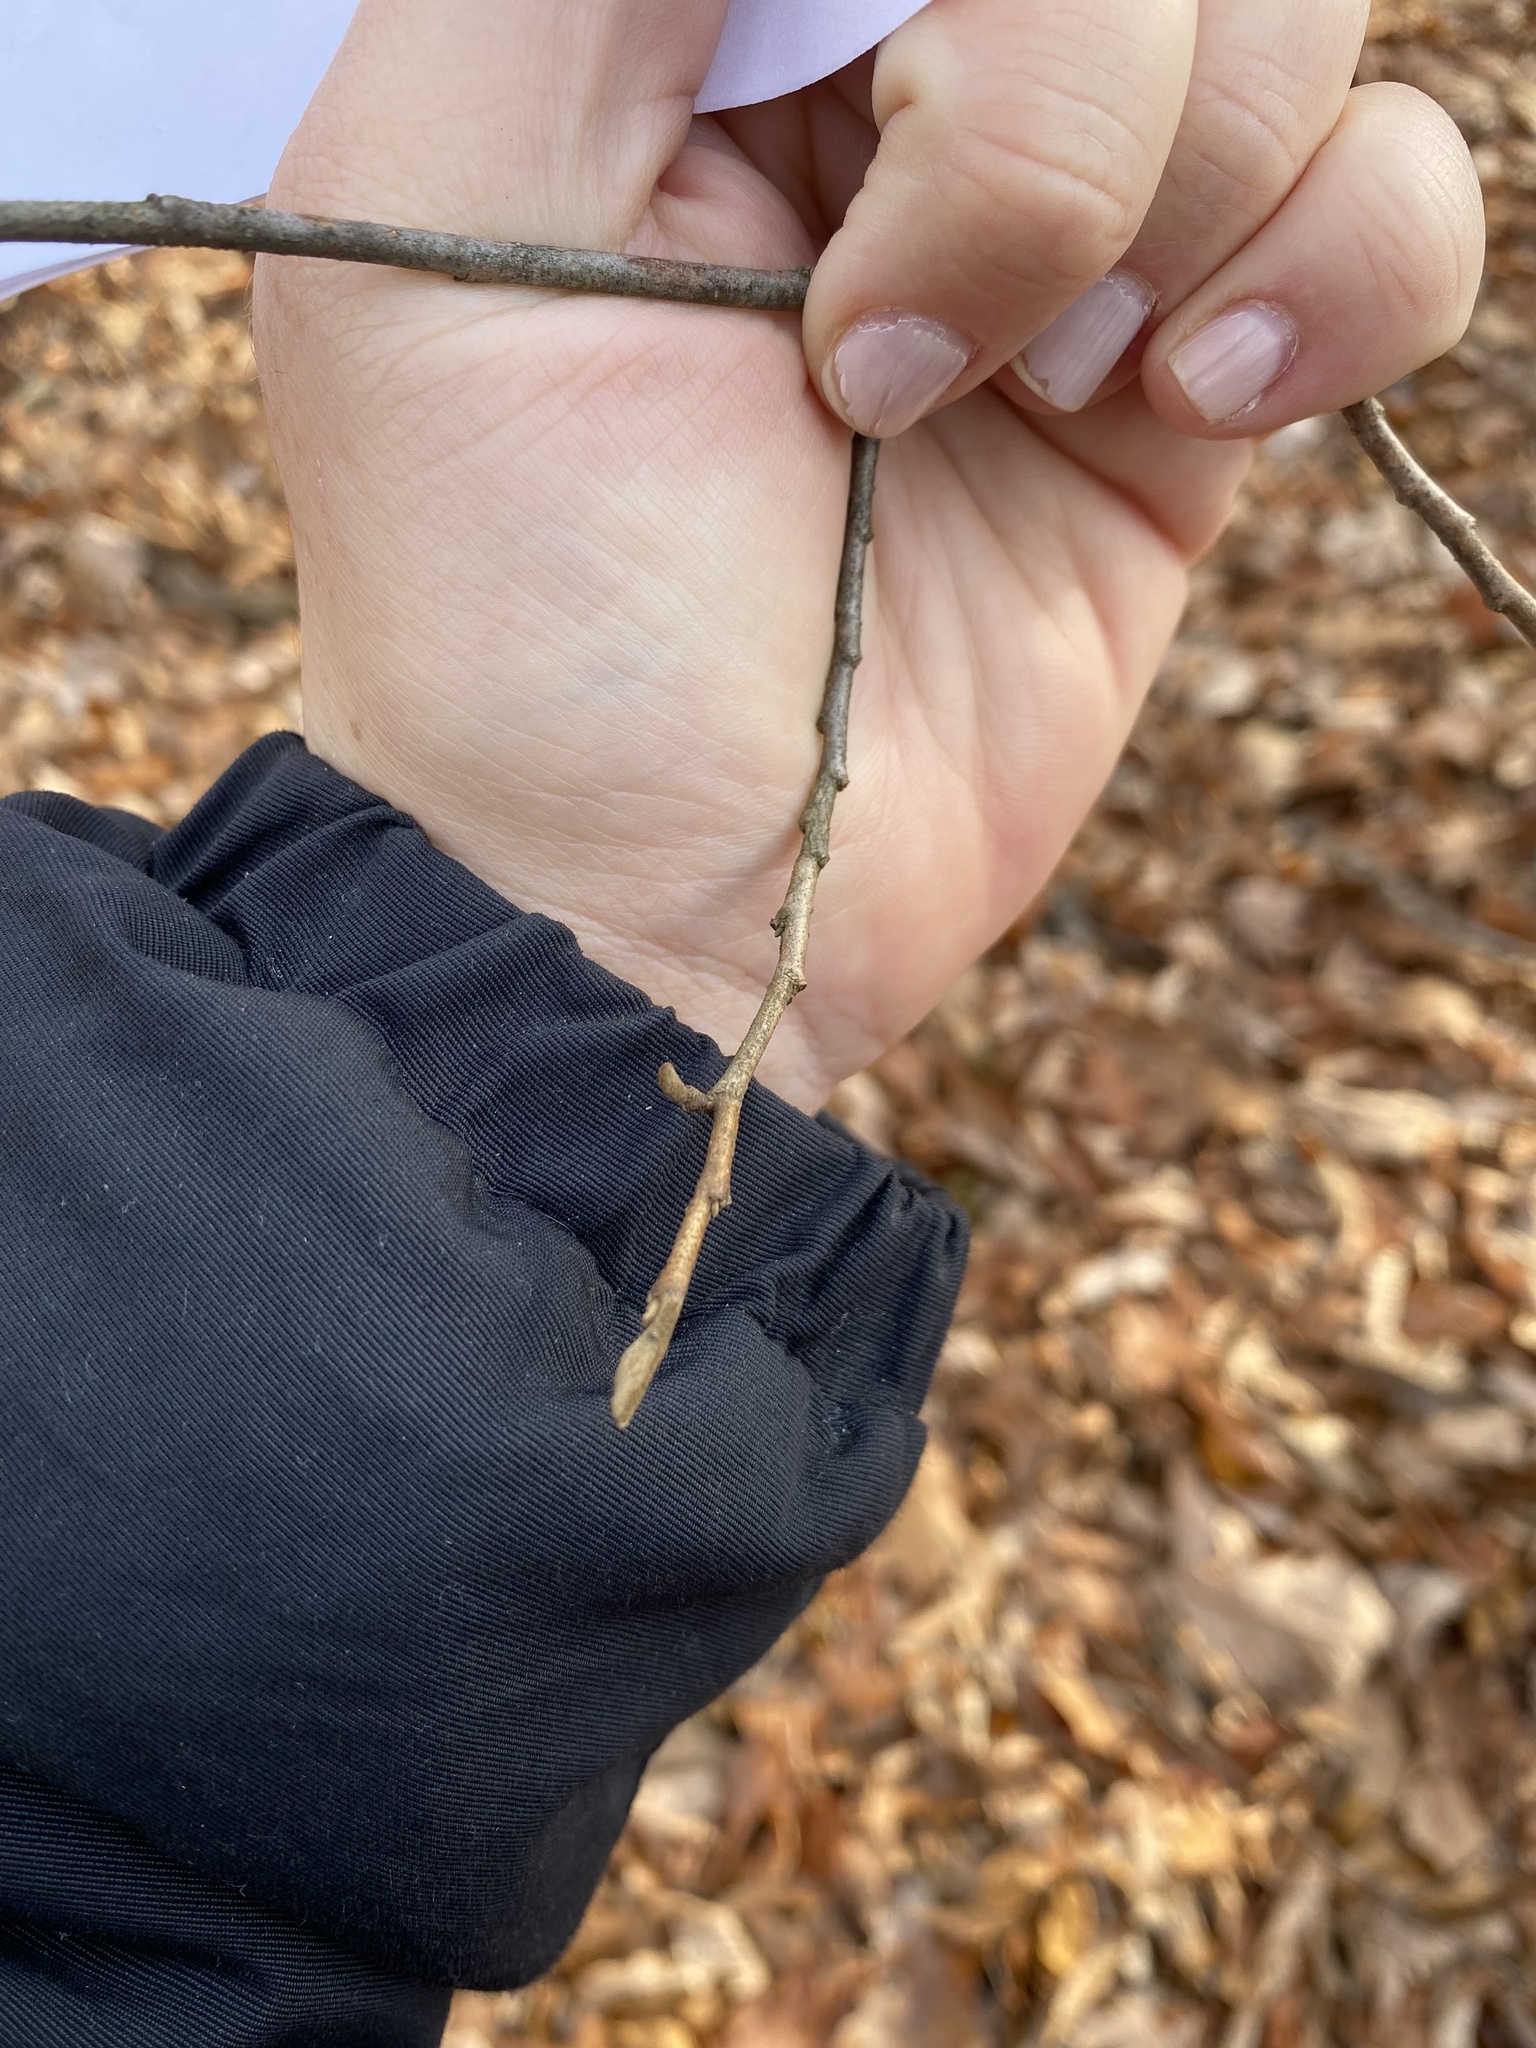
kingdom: Plantae
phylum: Tracheophyta
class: Magnoliopsida
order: Saxifragales
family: Hamamelidaceae
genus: Hamamelis
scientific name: Hamamelis virginiana
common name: Witch-hazel
